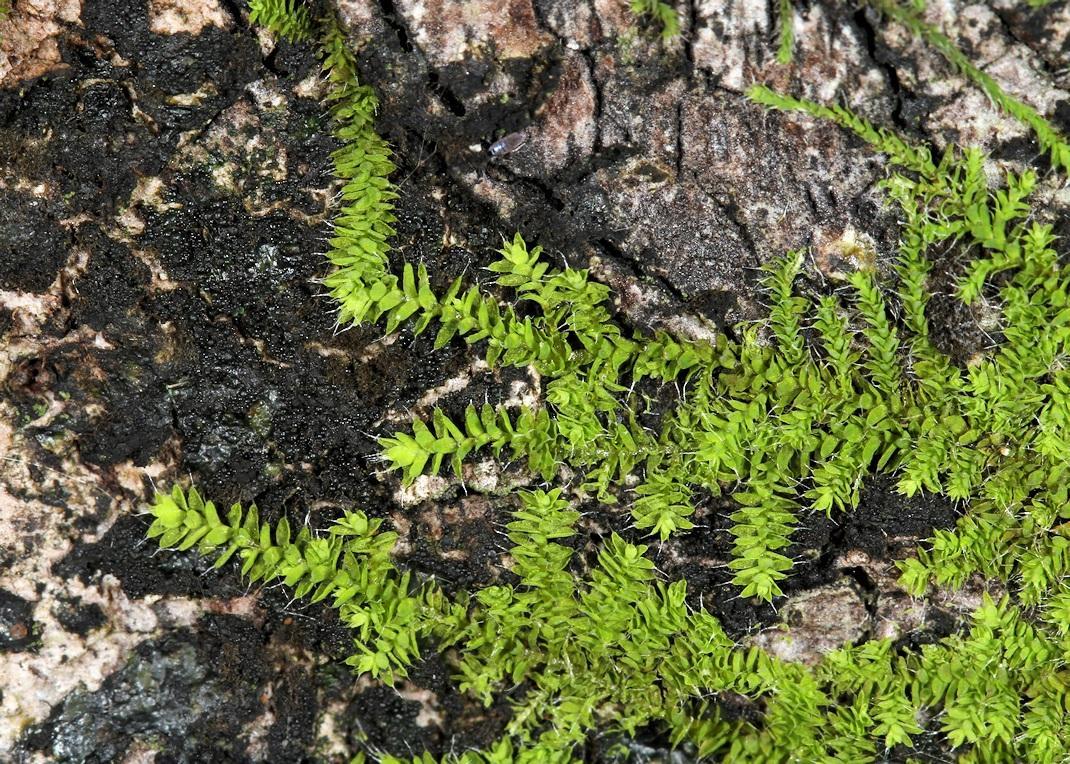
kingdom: Plantae
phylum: Bryophyta
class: Bryopsida
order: Dicranales
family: Erpodiaceae
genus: Tricherpodium
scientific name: Tricherpodium beccarii
